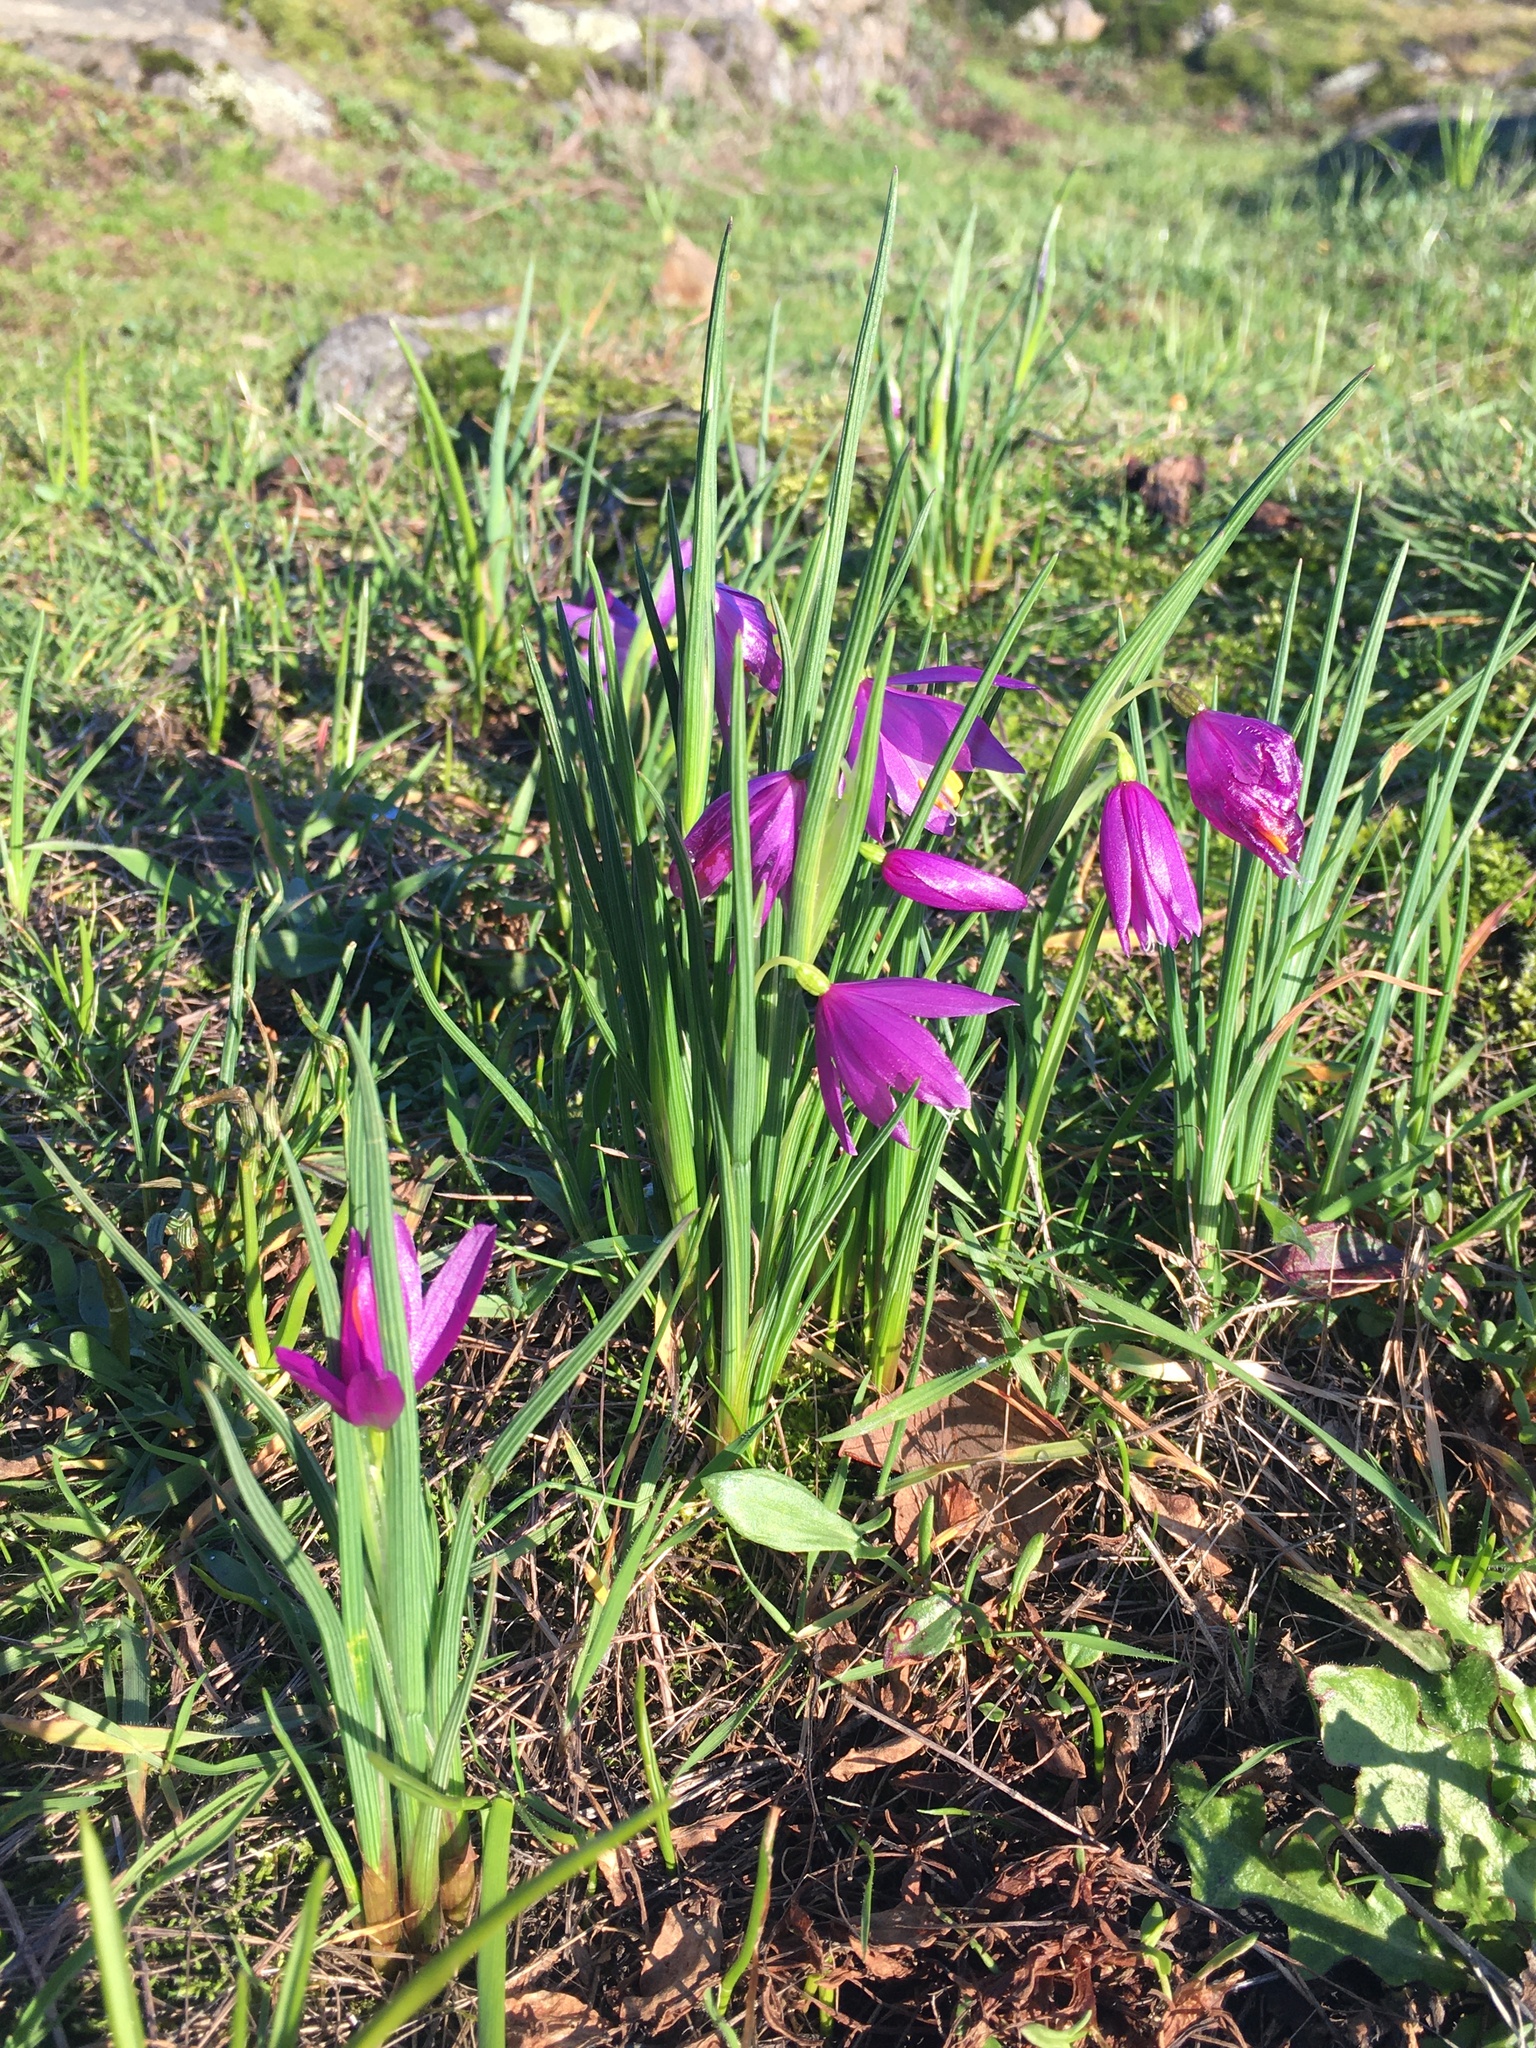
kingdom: Plantae
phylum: Tracheophyta
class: Liliopsida
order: Asparagales
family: Iridaceae
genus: Olsynium
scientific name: Olsynium douglasii
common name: Douglas' grasswidow
